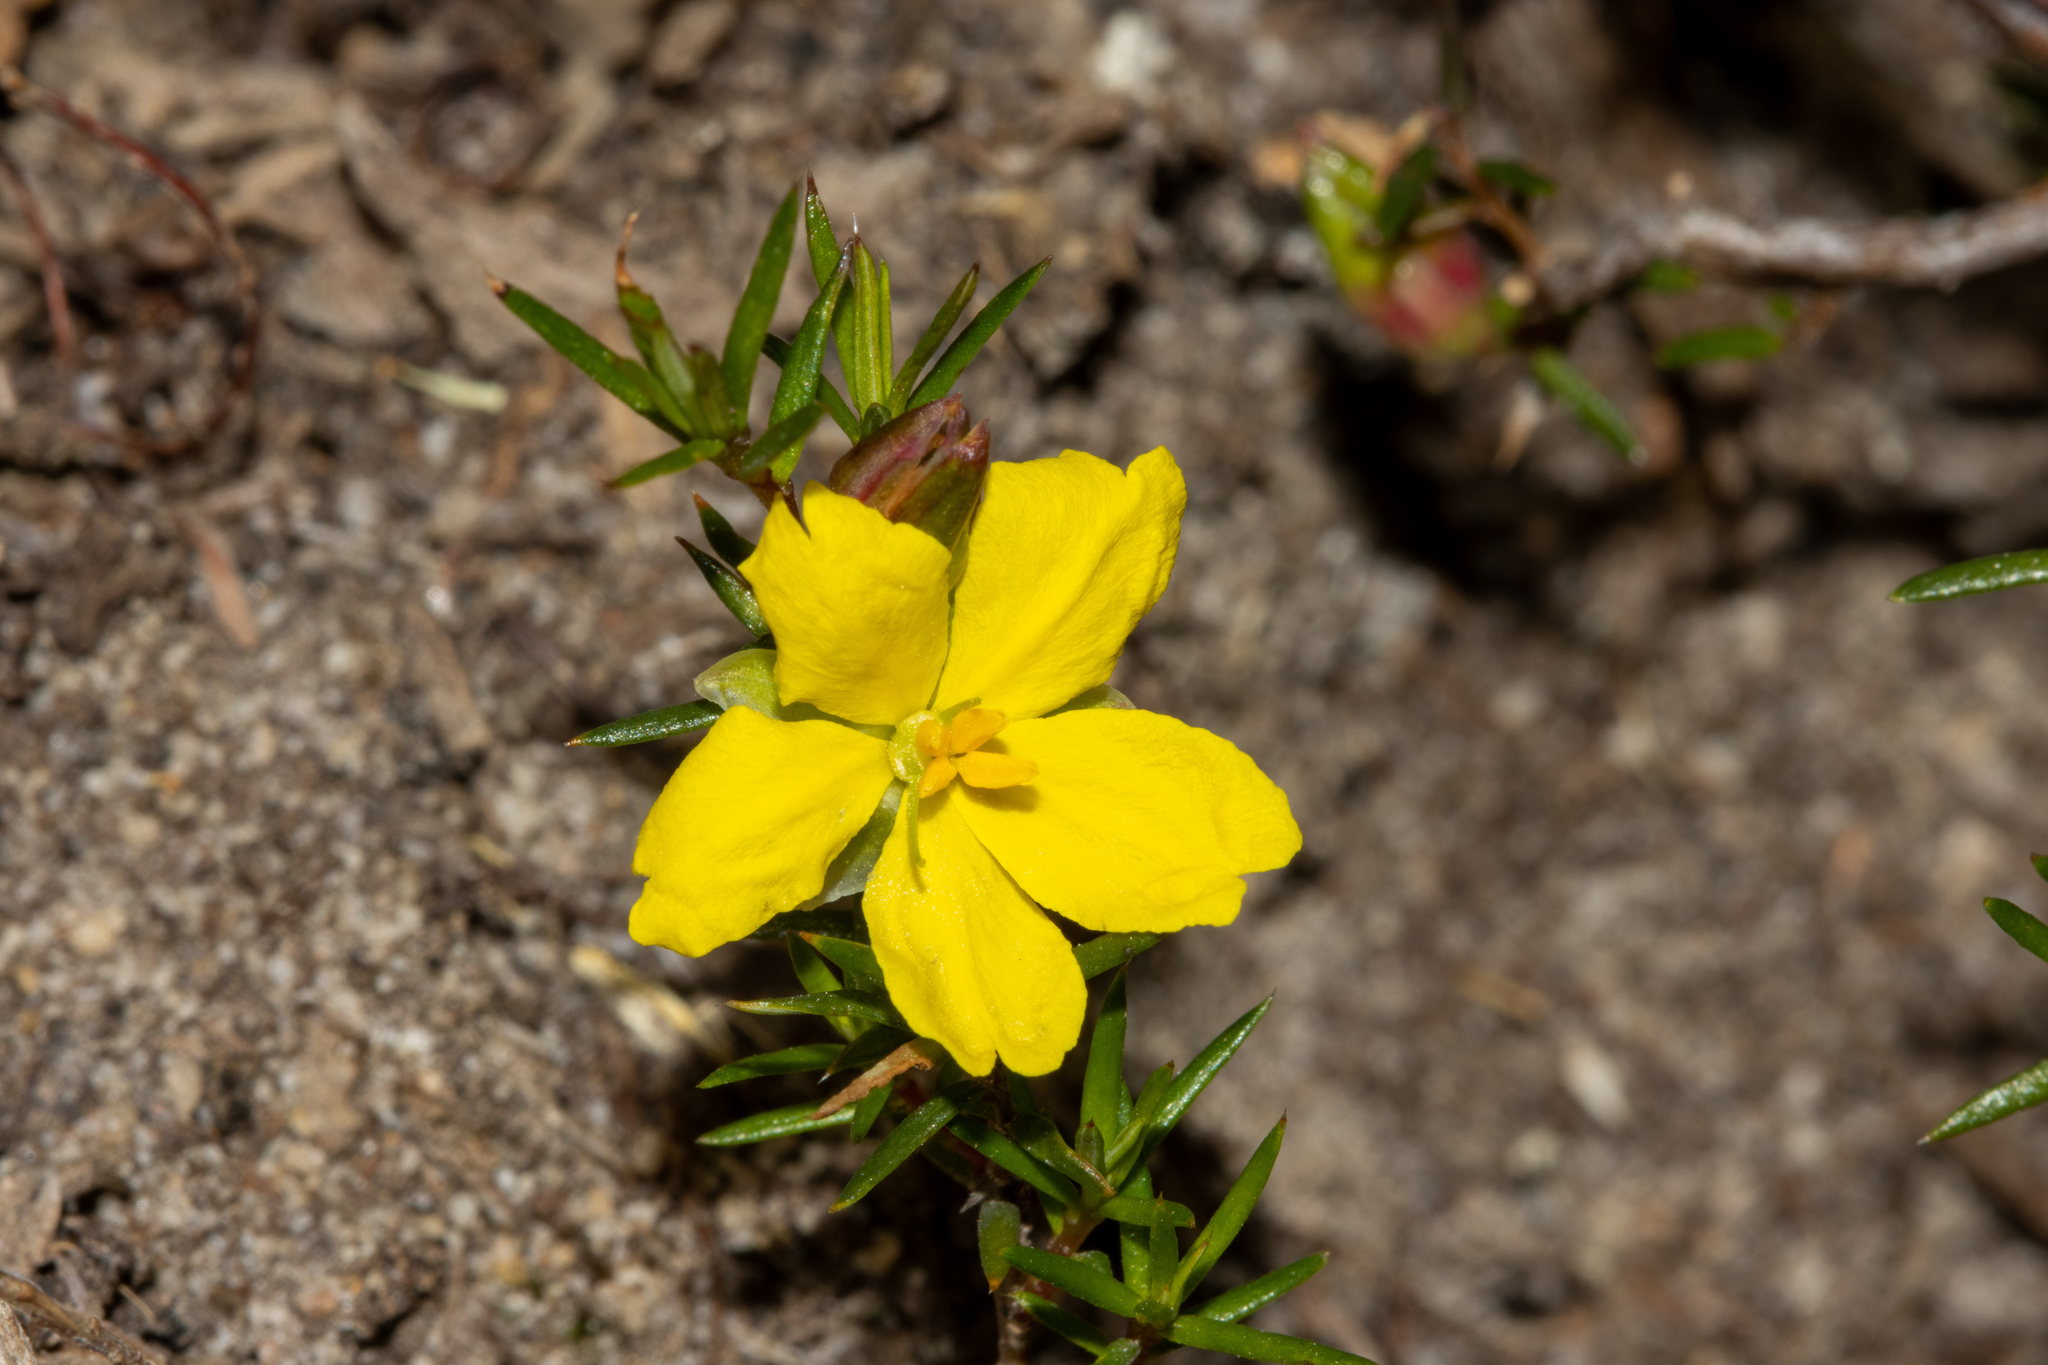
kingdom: Plantae
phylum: Tracheophyta
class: Magnoliopsida
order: Dilleniales
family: Dilleniaceae
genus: Hibbertia
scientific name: Hibbertia exutiacies
